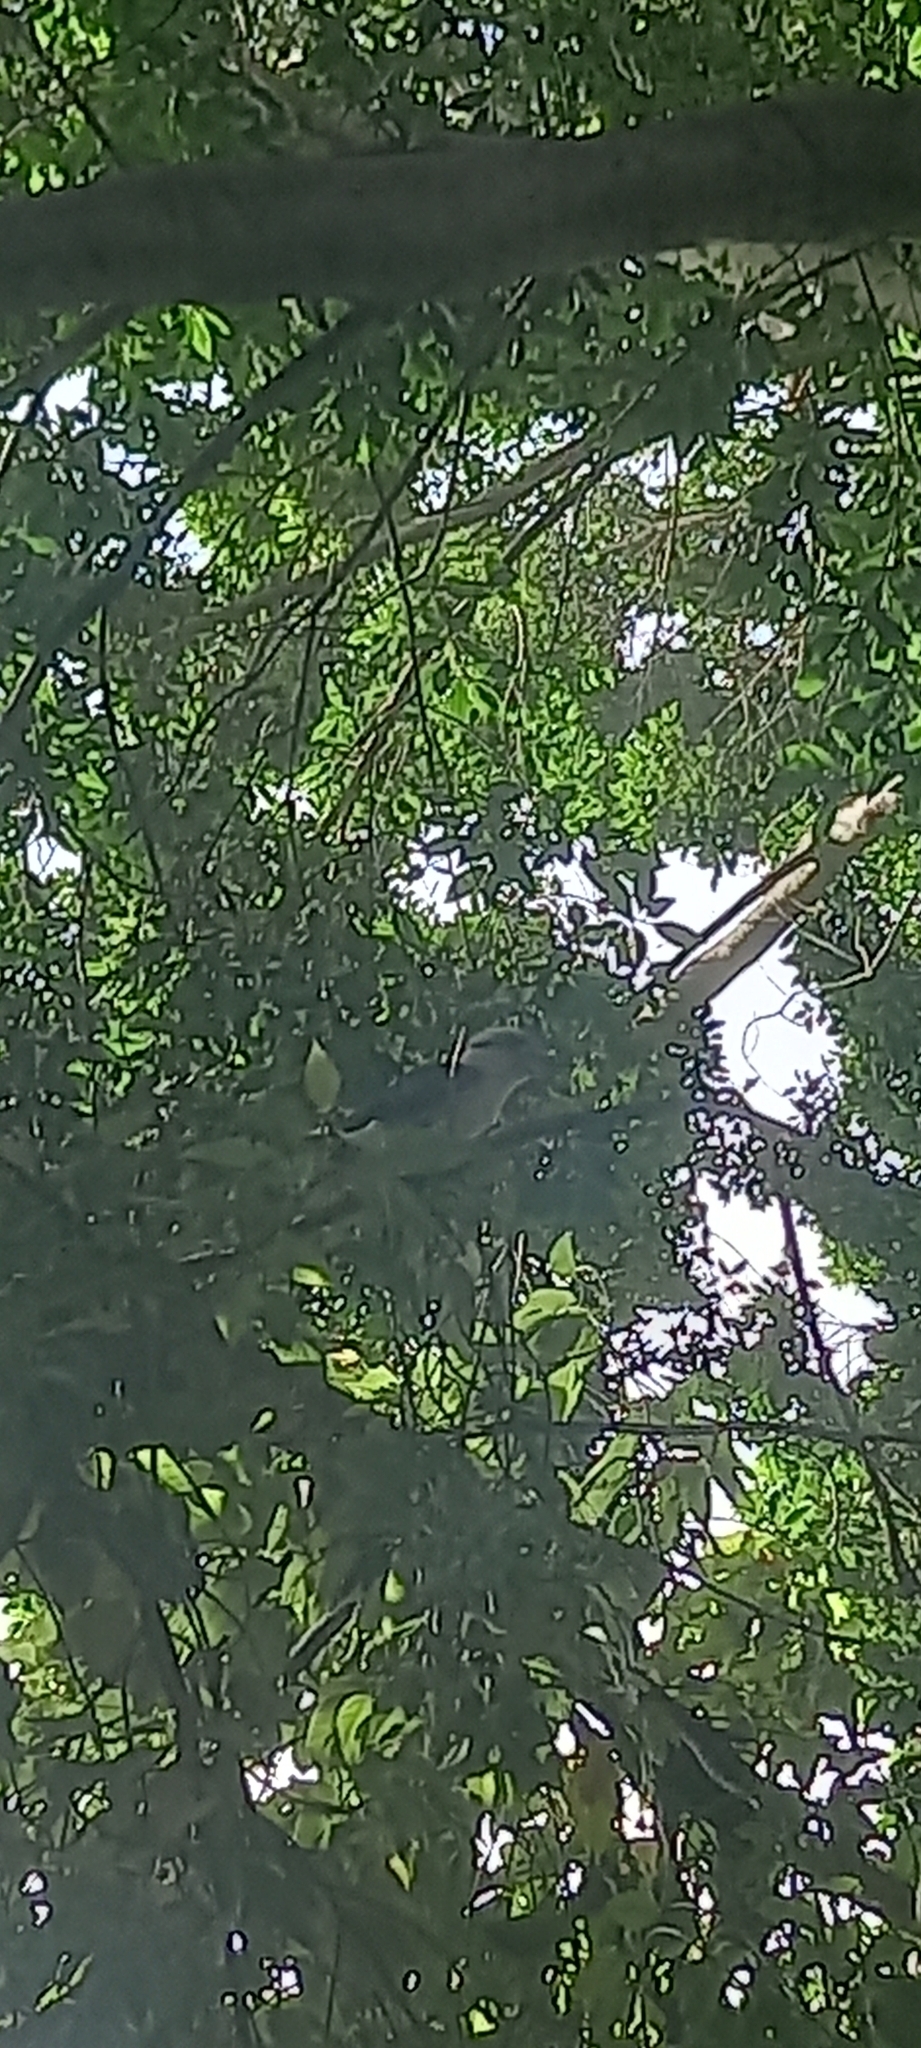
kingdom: Animalia
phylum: Chordata
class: Aves
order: Coraciiformes
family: Alcedinidae
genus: Dacelo
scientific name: Dacelo novaeguineae
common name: Laughing kookaburra
